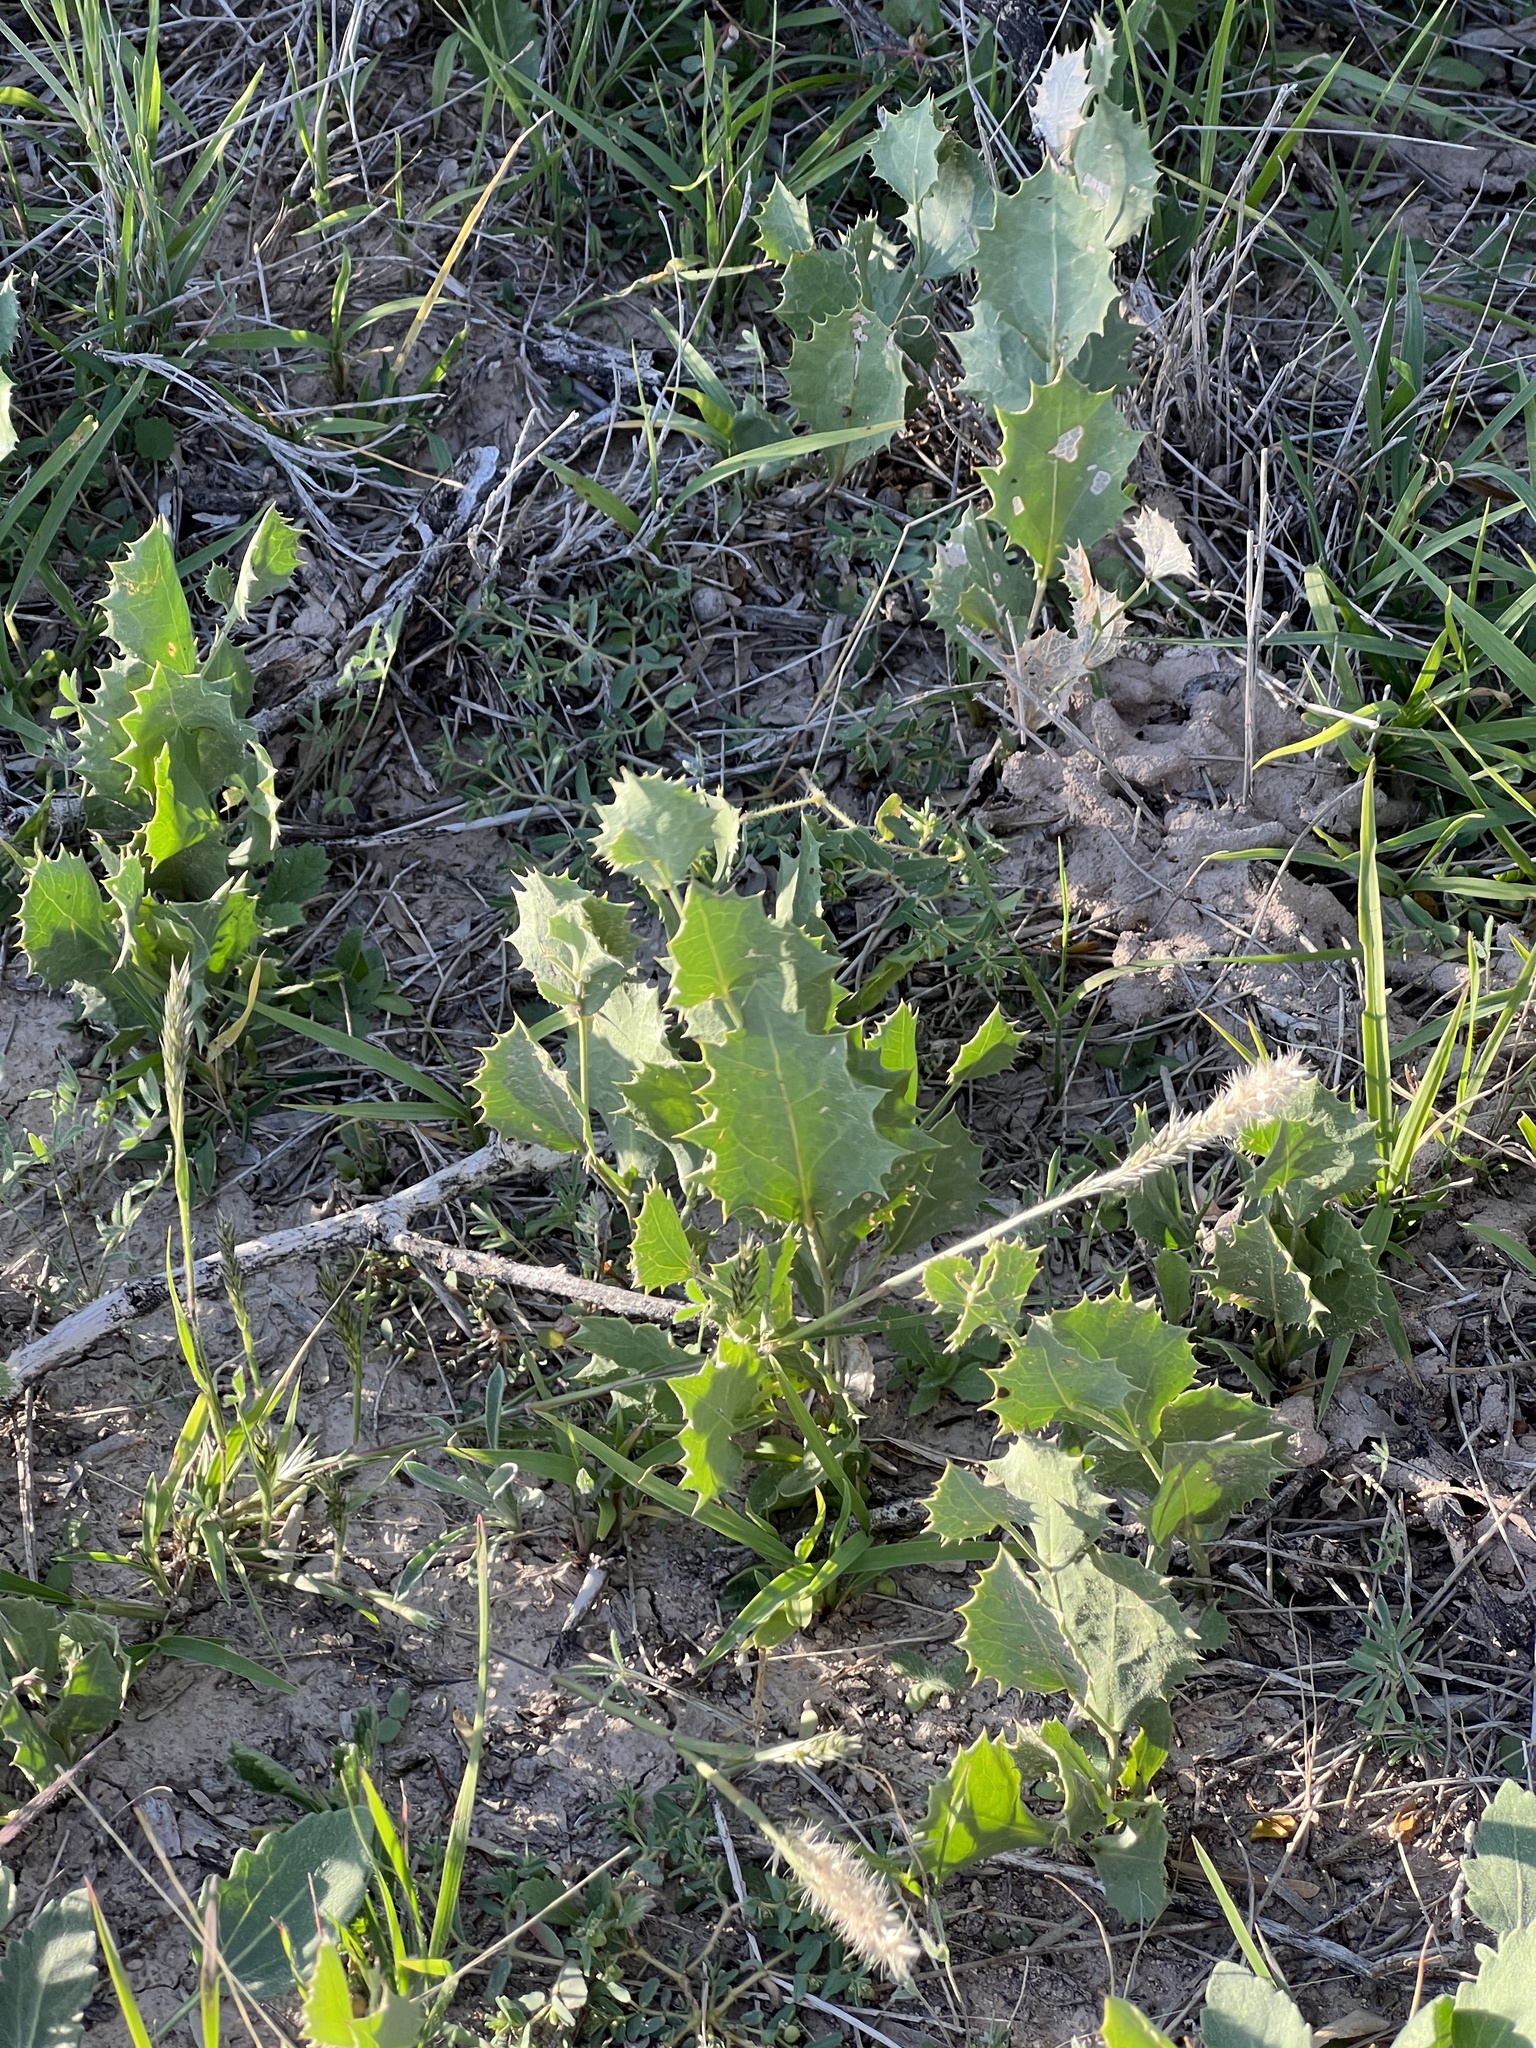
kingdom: Plantae
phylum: Tracheophyta
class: Magnoliopsida
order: Asterales
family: Asteraceae
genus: Acourtia
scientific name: Acourtia nana
